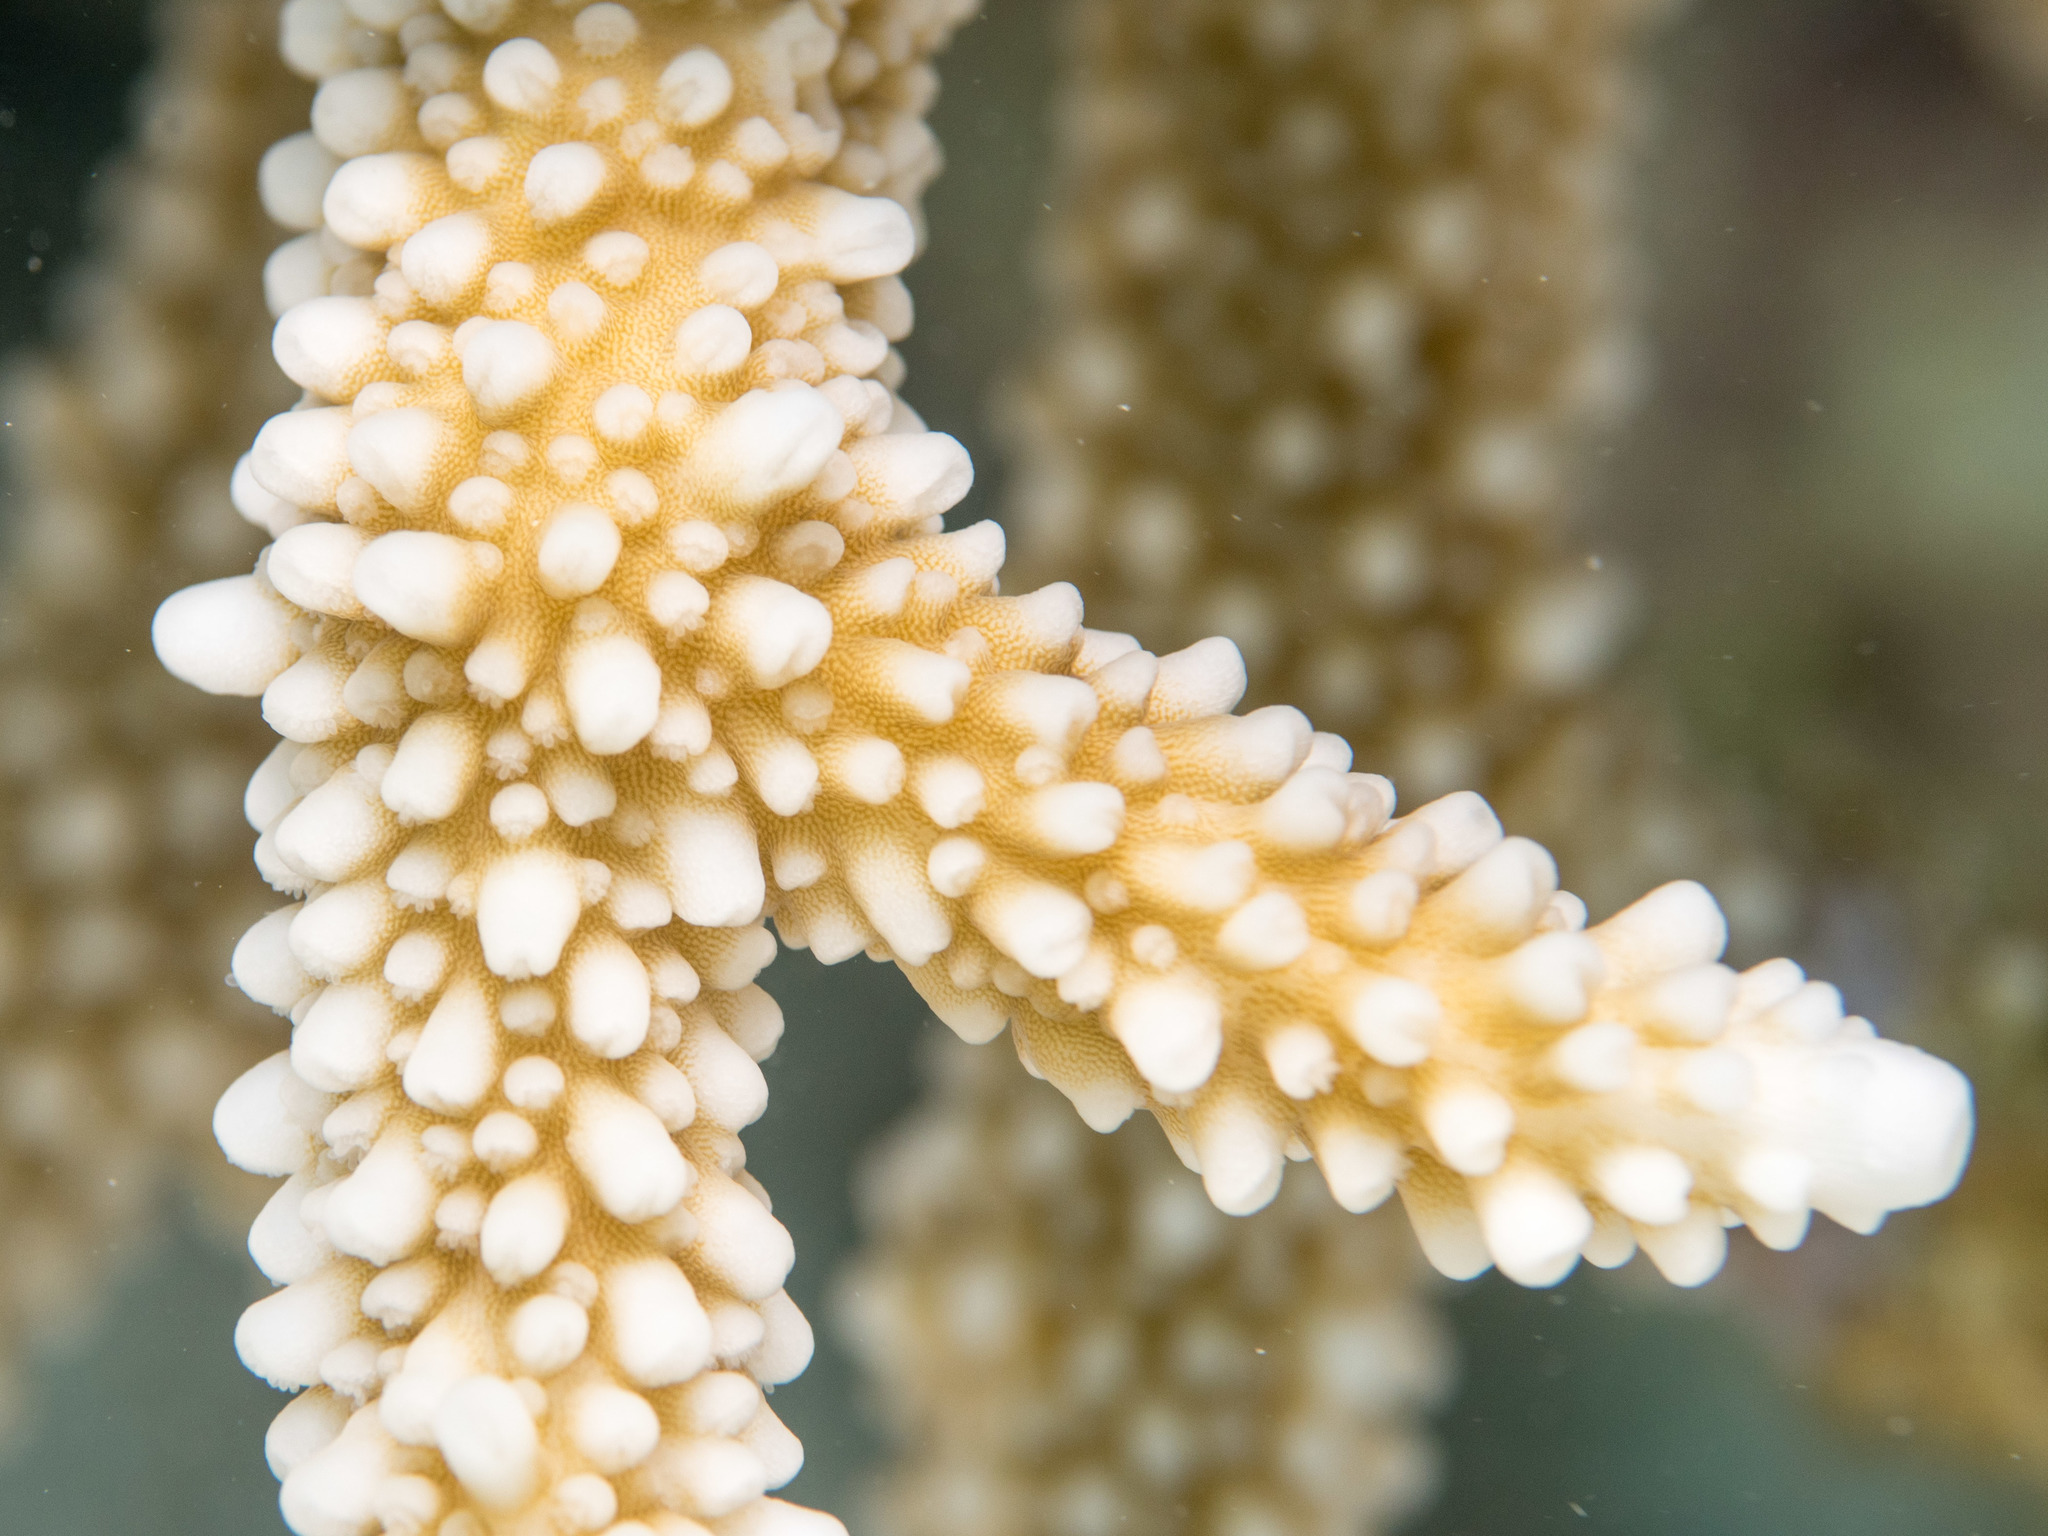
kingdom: Animalia
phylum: Cnidaria
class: Anthozoa
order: Scleractinia
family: Acroporidae
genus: Acropora
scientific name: Acropora intermedia
